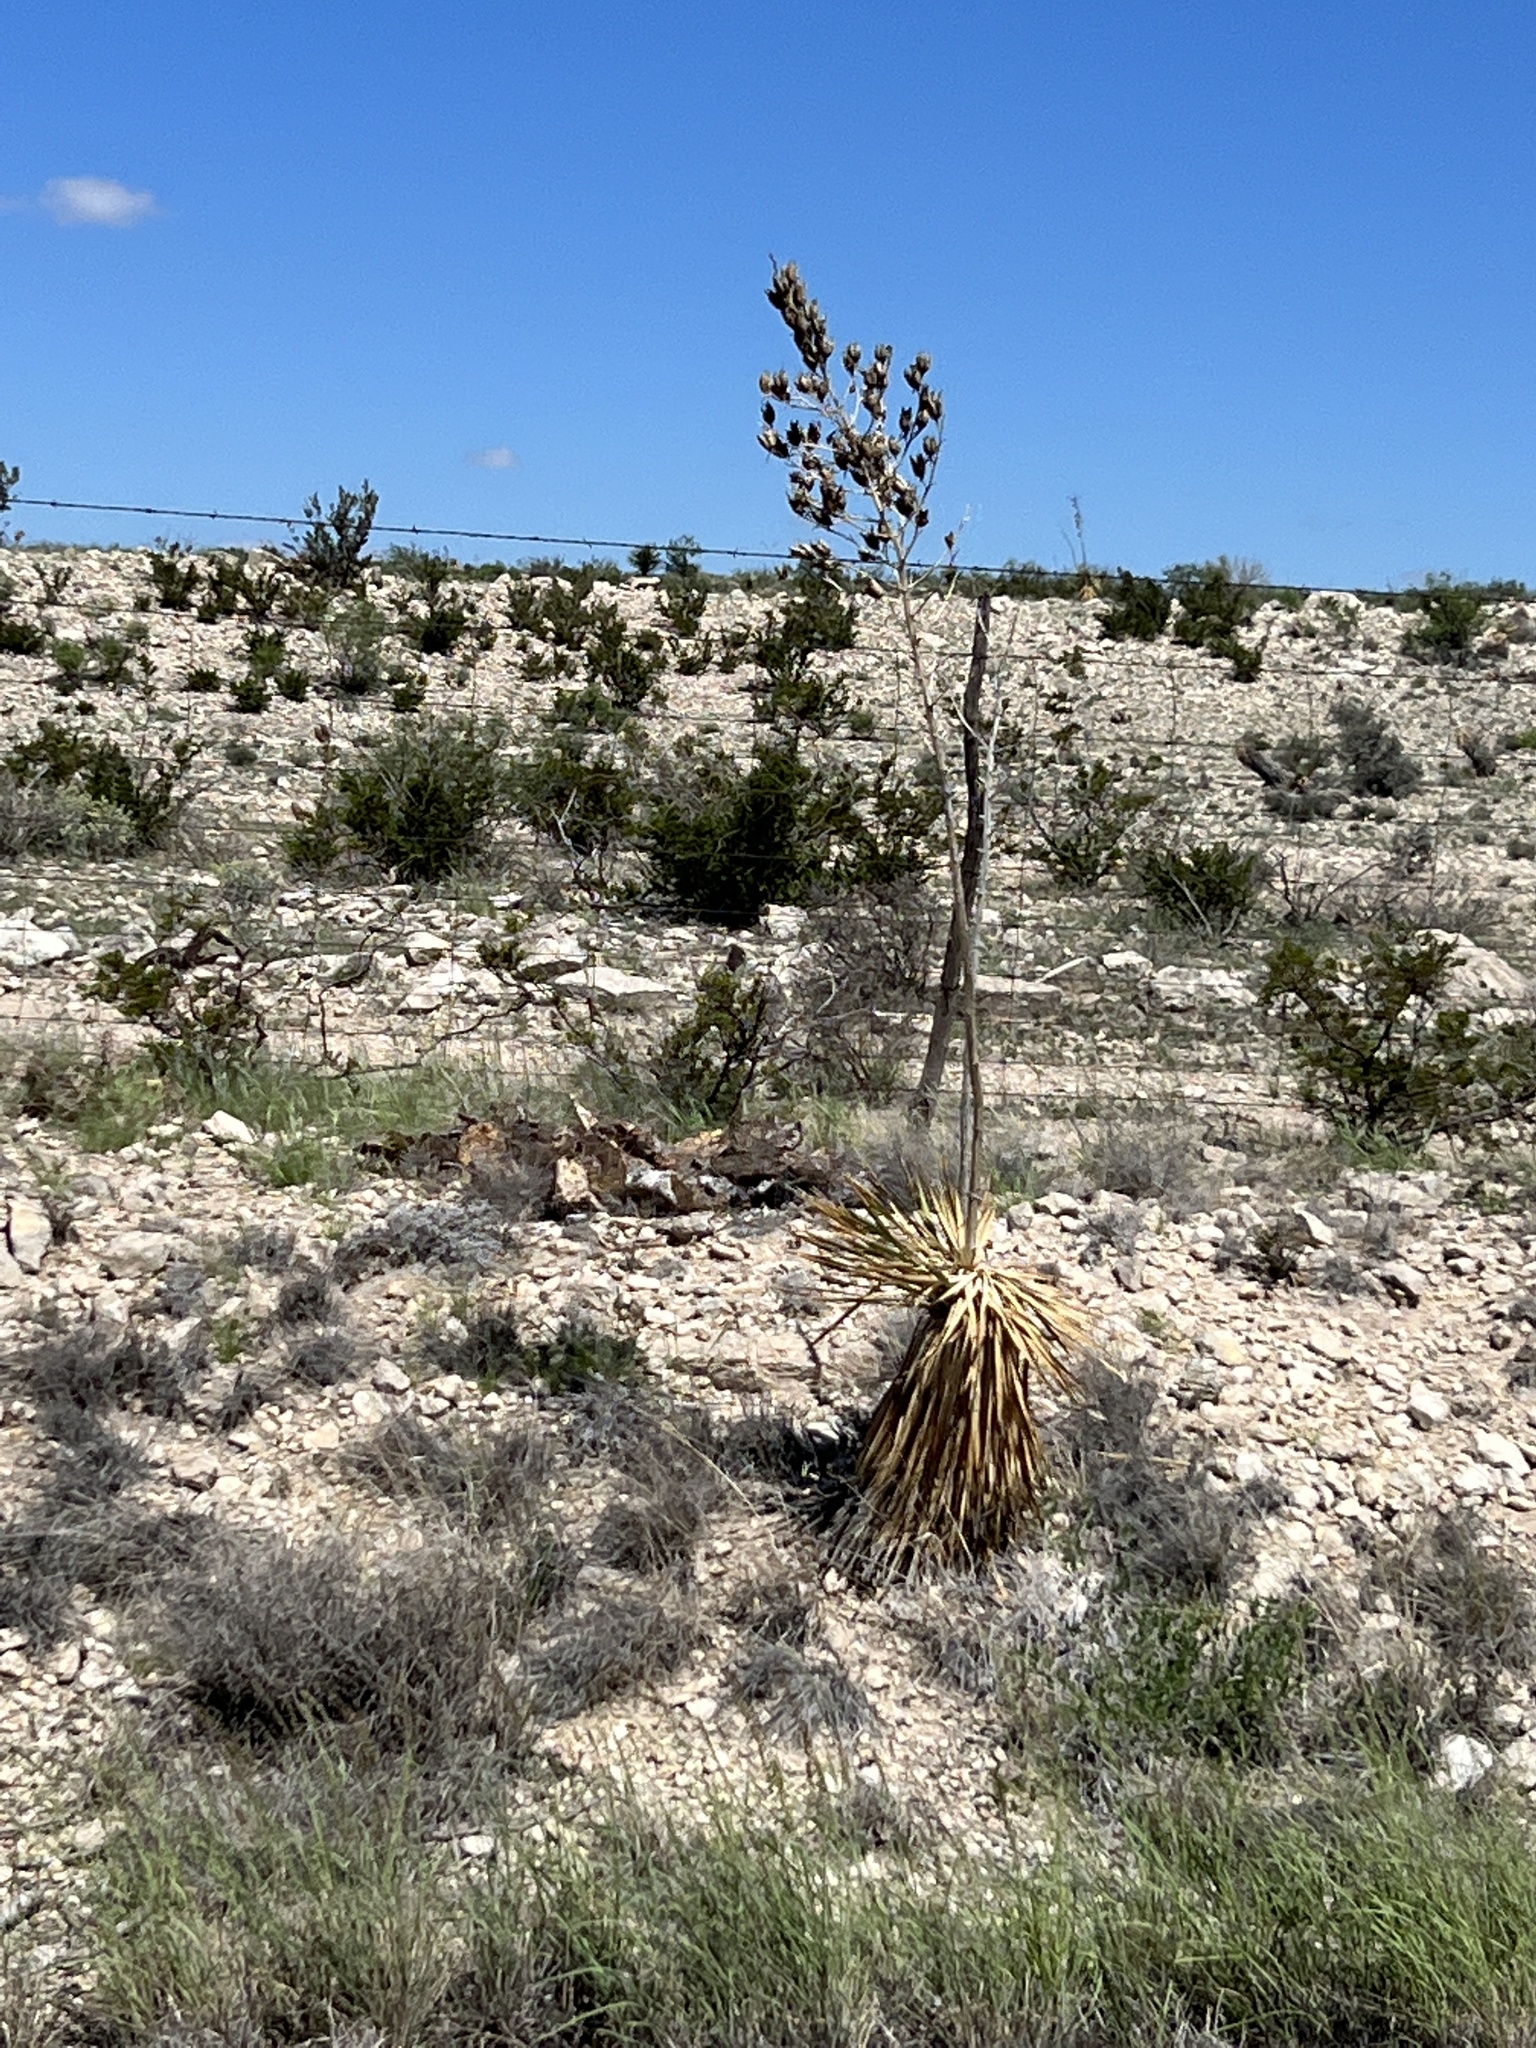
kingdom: Plantae
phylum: Tracheophyta
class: Liliopsida
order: Asparagales
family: Asparagaceae
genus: Yucca
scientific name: Yucca thompsoniana
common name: Trans-pecos yucca
